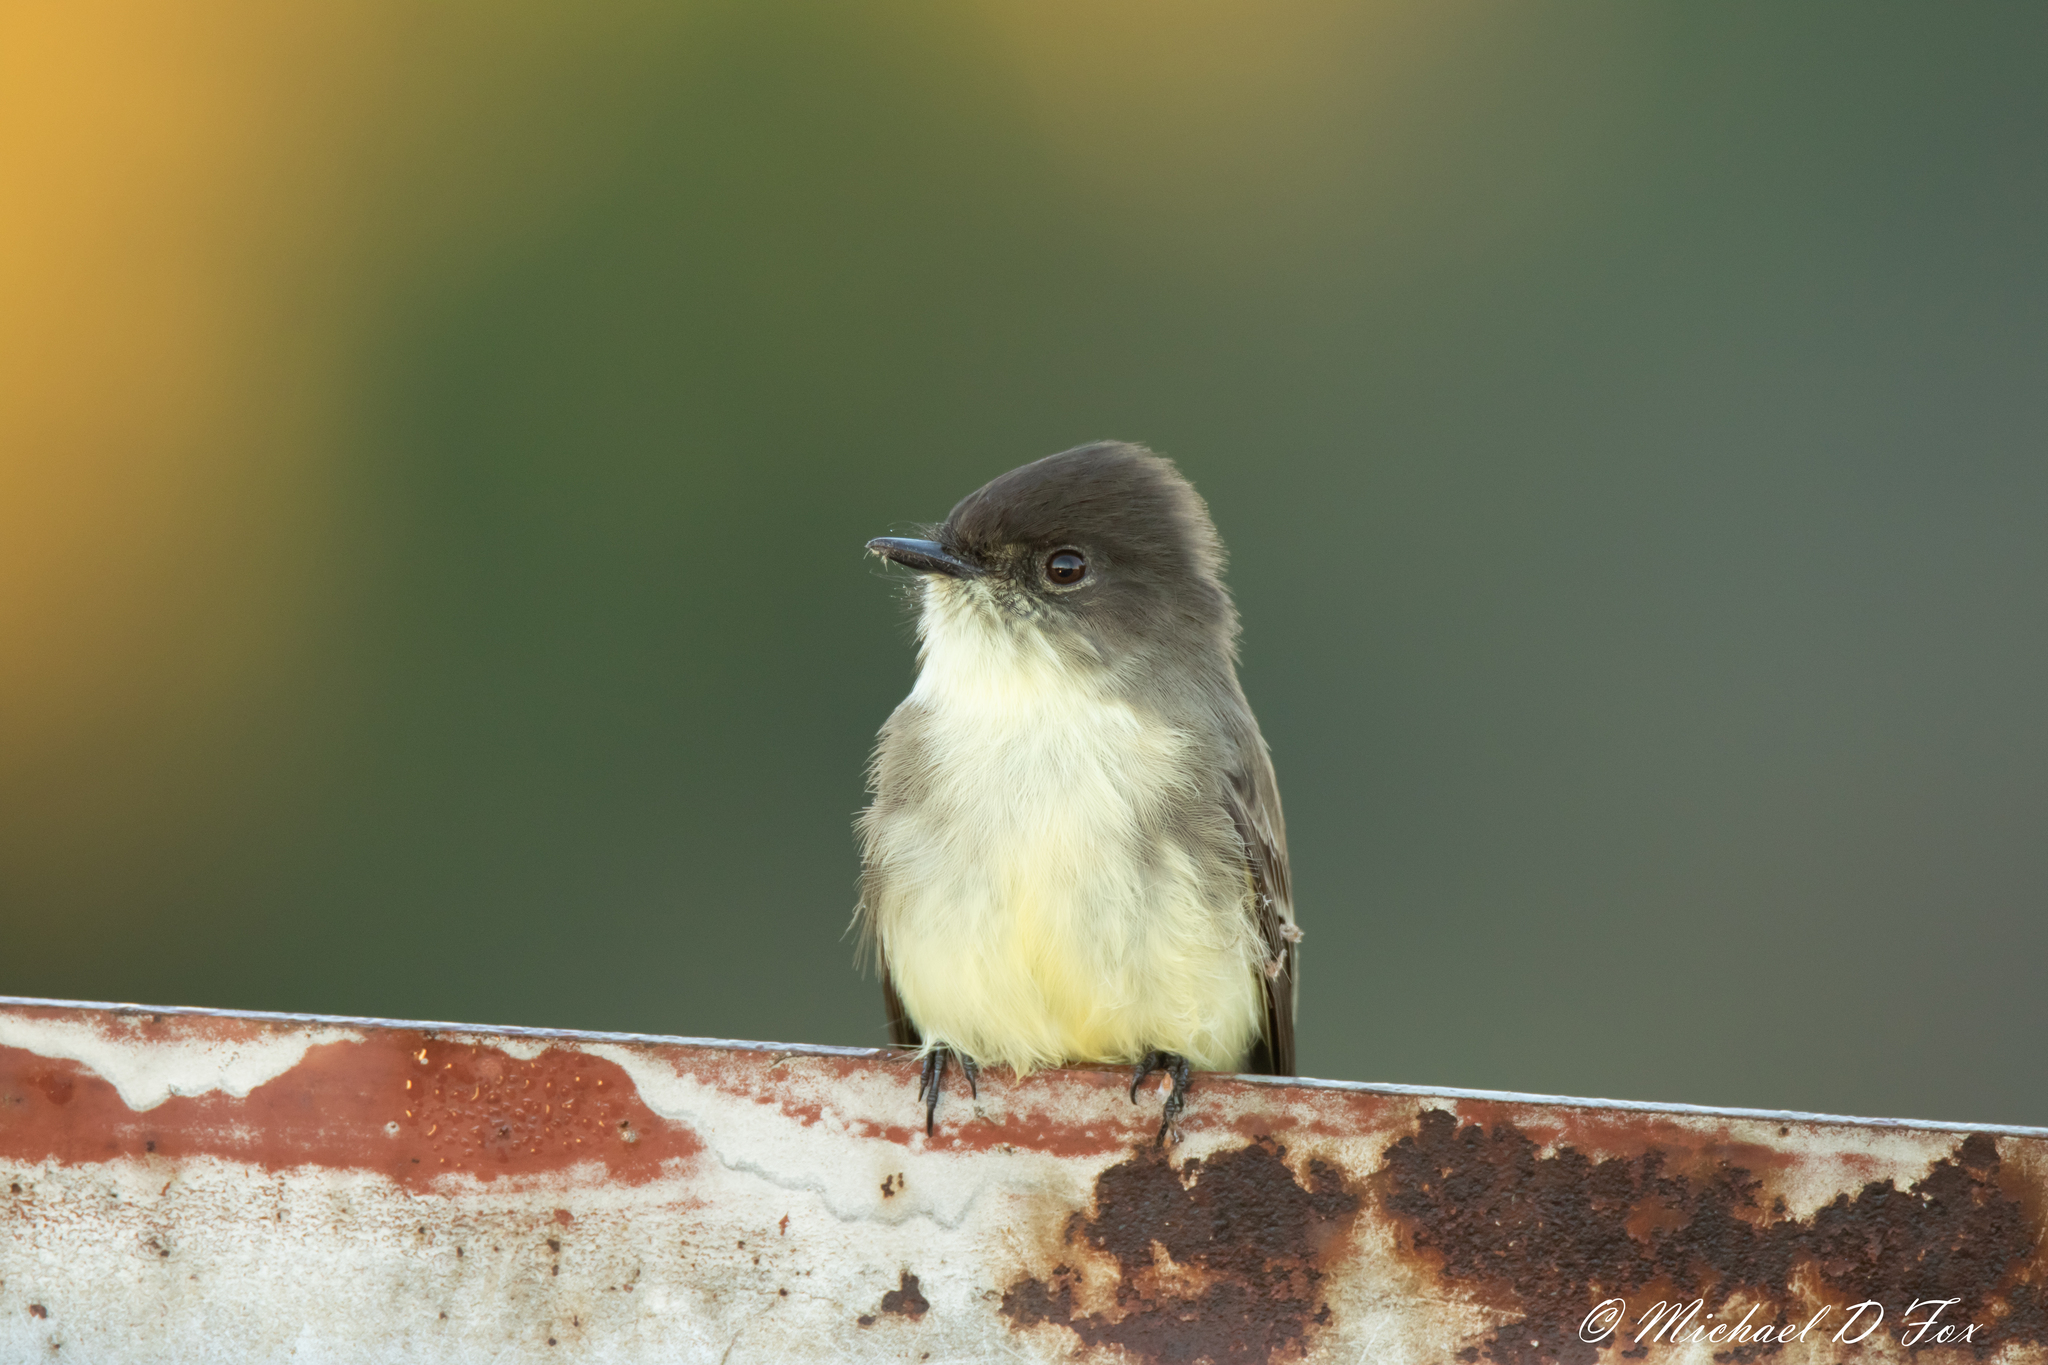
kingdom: Animalia
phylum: Chordata
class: Aves
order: Passeriformes
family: Tyrannidae
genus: Sayornis
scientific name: Sayornis phoebe
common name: Eastern phoebe
